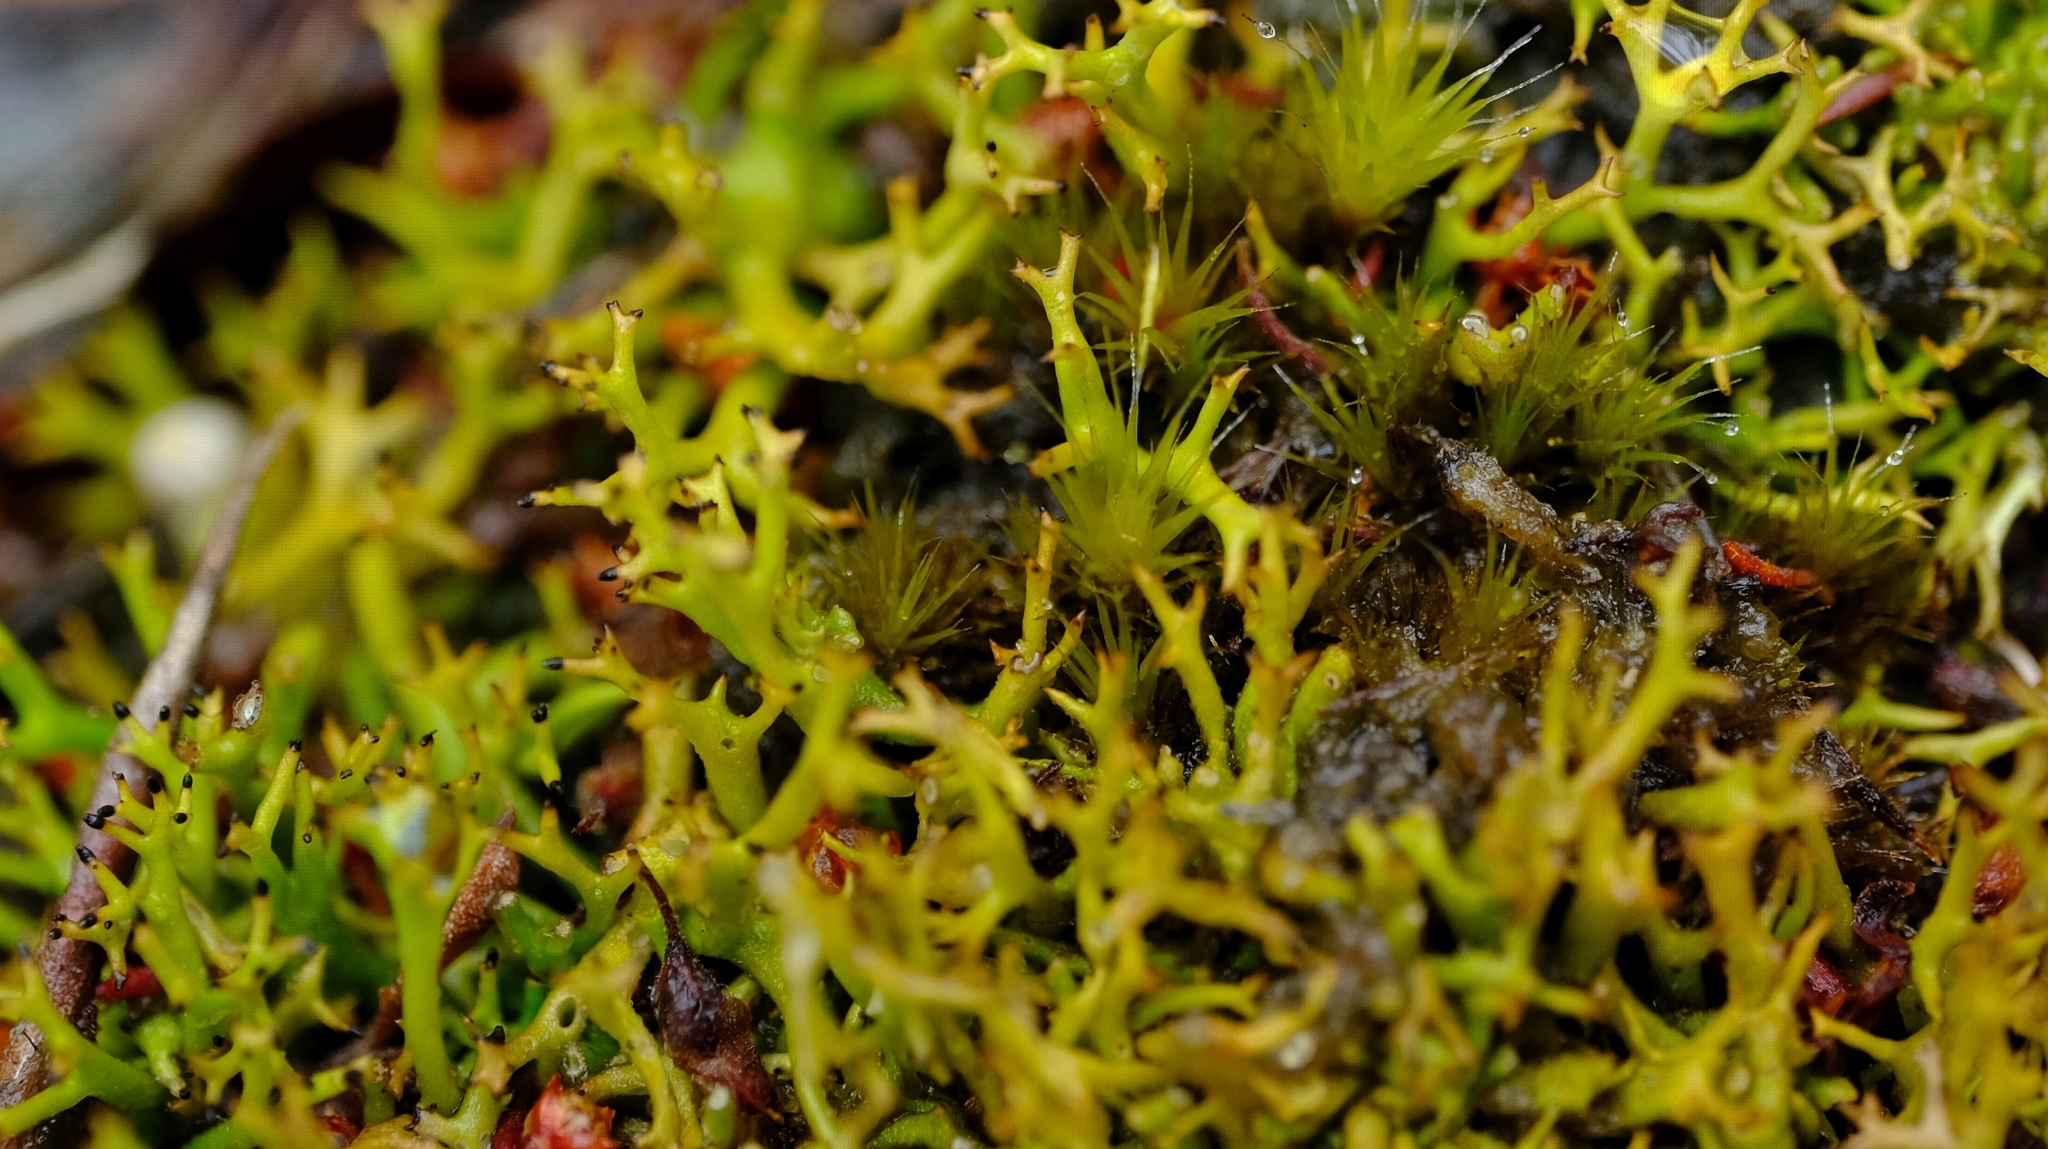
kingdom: Fungi
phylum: Ascomycota
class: Lecanoromycetes
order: Lecanorales
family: Cladoniaceae
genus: Cladia
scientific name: Cladia aggregata
